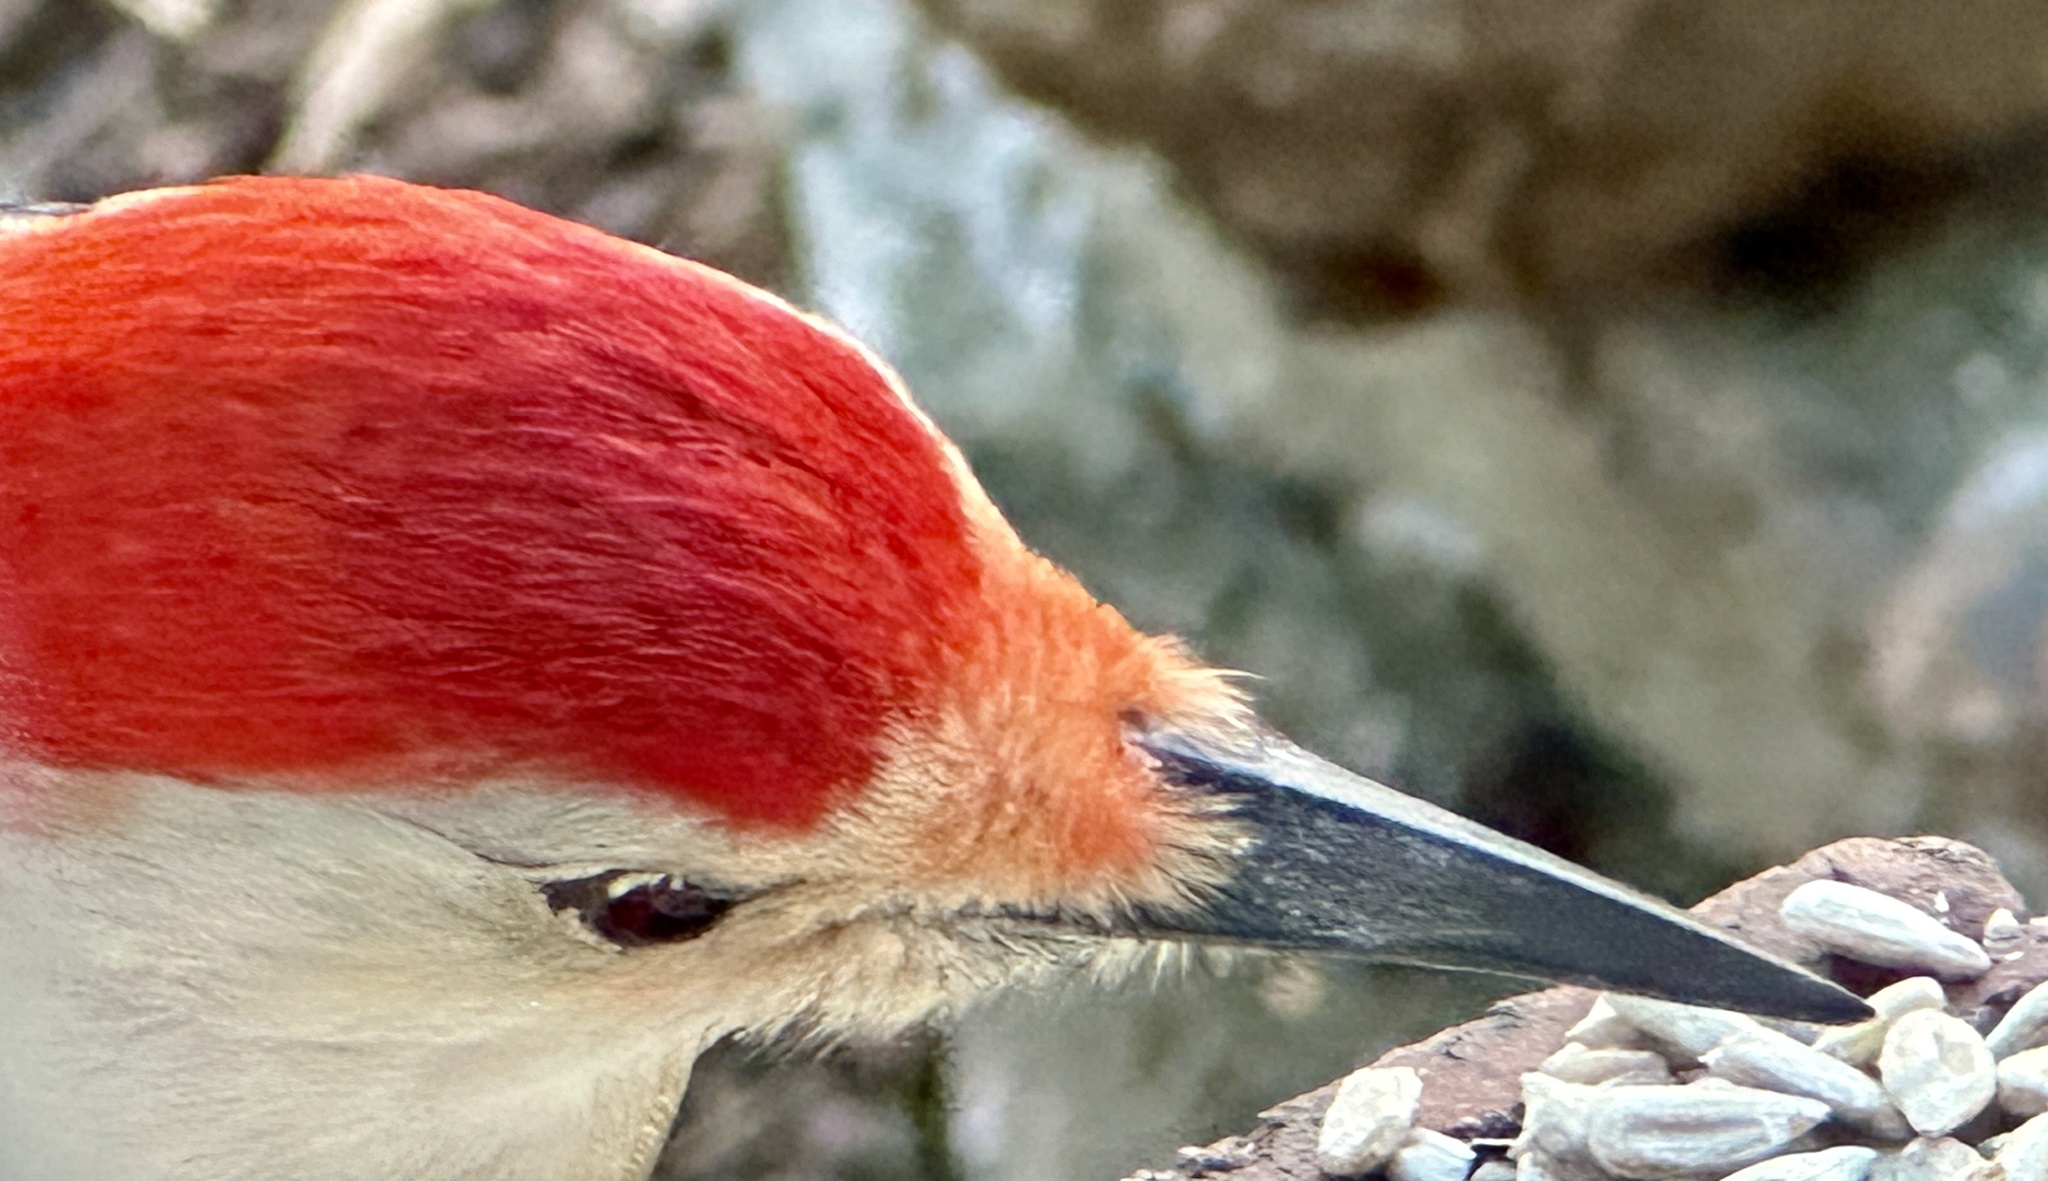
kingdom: Animalia
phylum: Chordata
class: Aves
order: Piciformes
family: Picidae
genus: Melanerpes
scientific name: Melanerpes carolinus
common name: Red-bellied woodpecker
